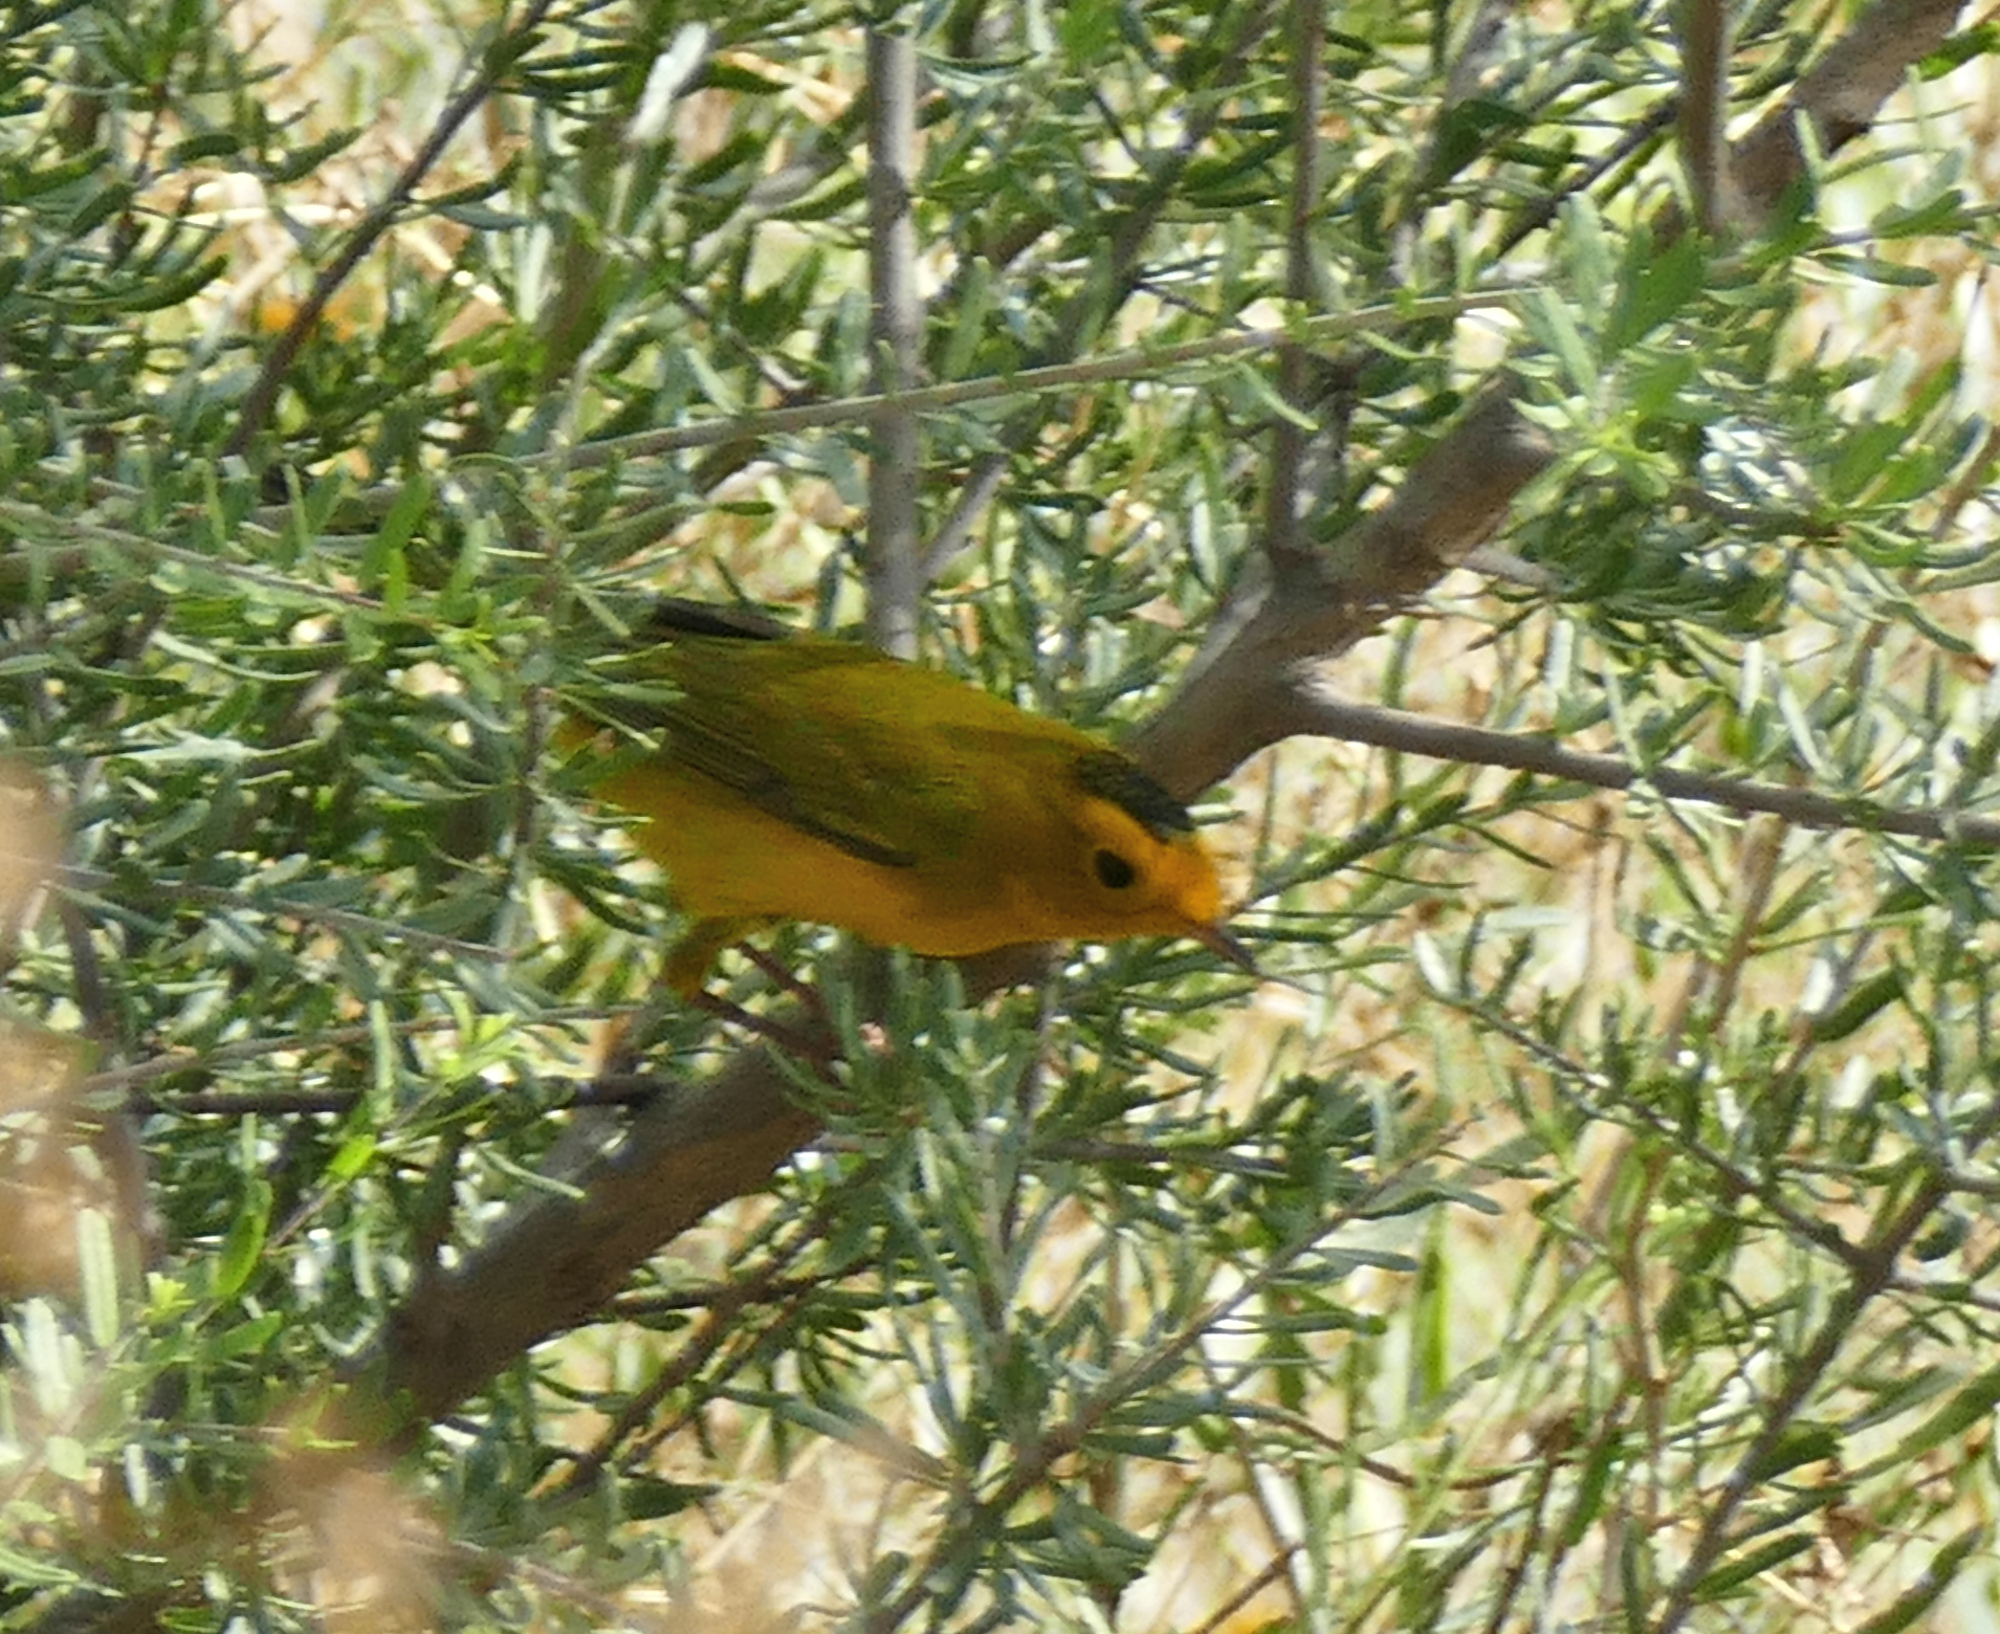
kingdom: Animalia
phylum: Chordata
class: Aves
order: Passeriformes
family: Parulidae
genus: Cardellina
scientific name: Cardellina pusilla
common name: Wilson's warbler
